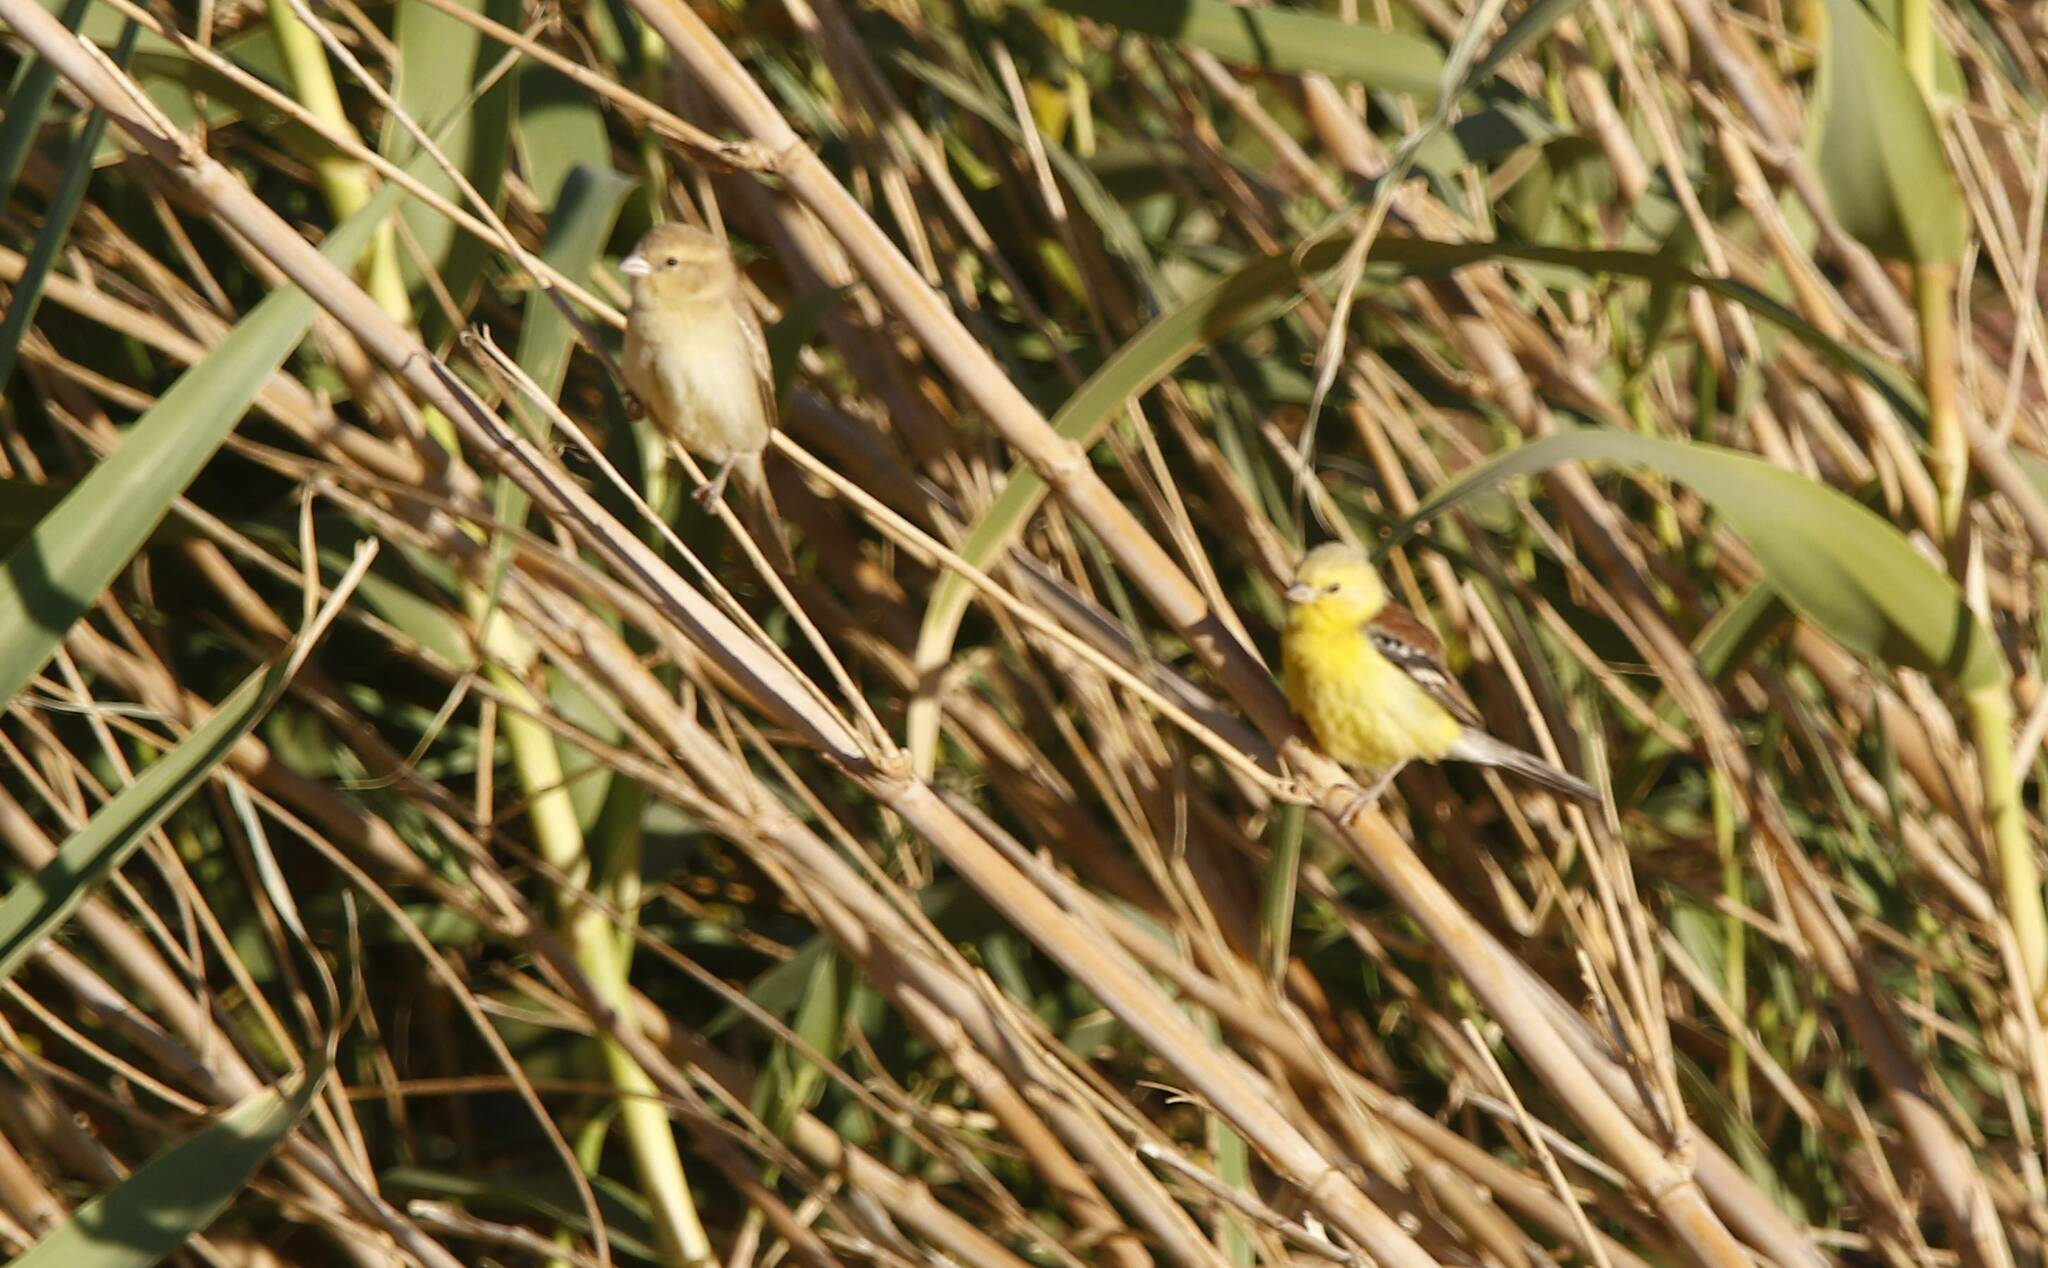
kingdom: Animalia
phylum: Chordata
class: Aves
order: Passeriformes
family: Passeridae
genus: Passer
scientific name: Passer luteus
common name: Sudan golden sparrow
